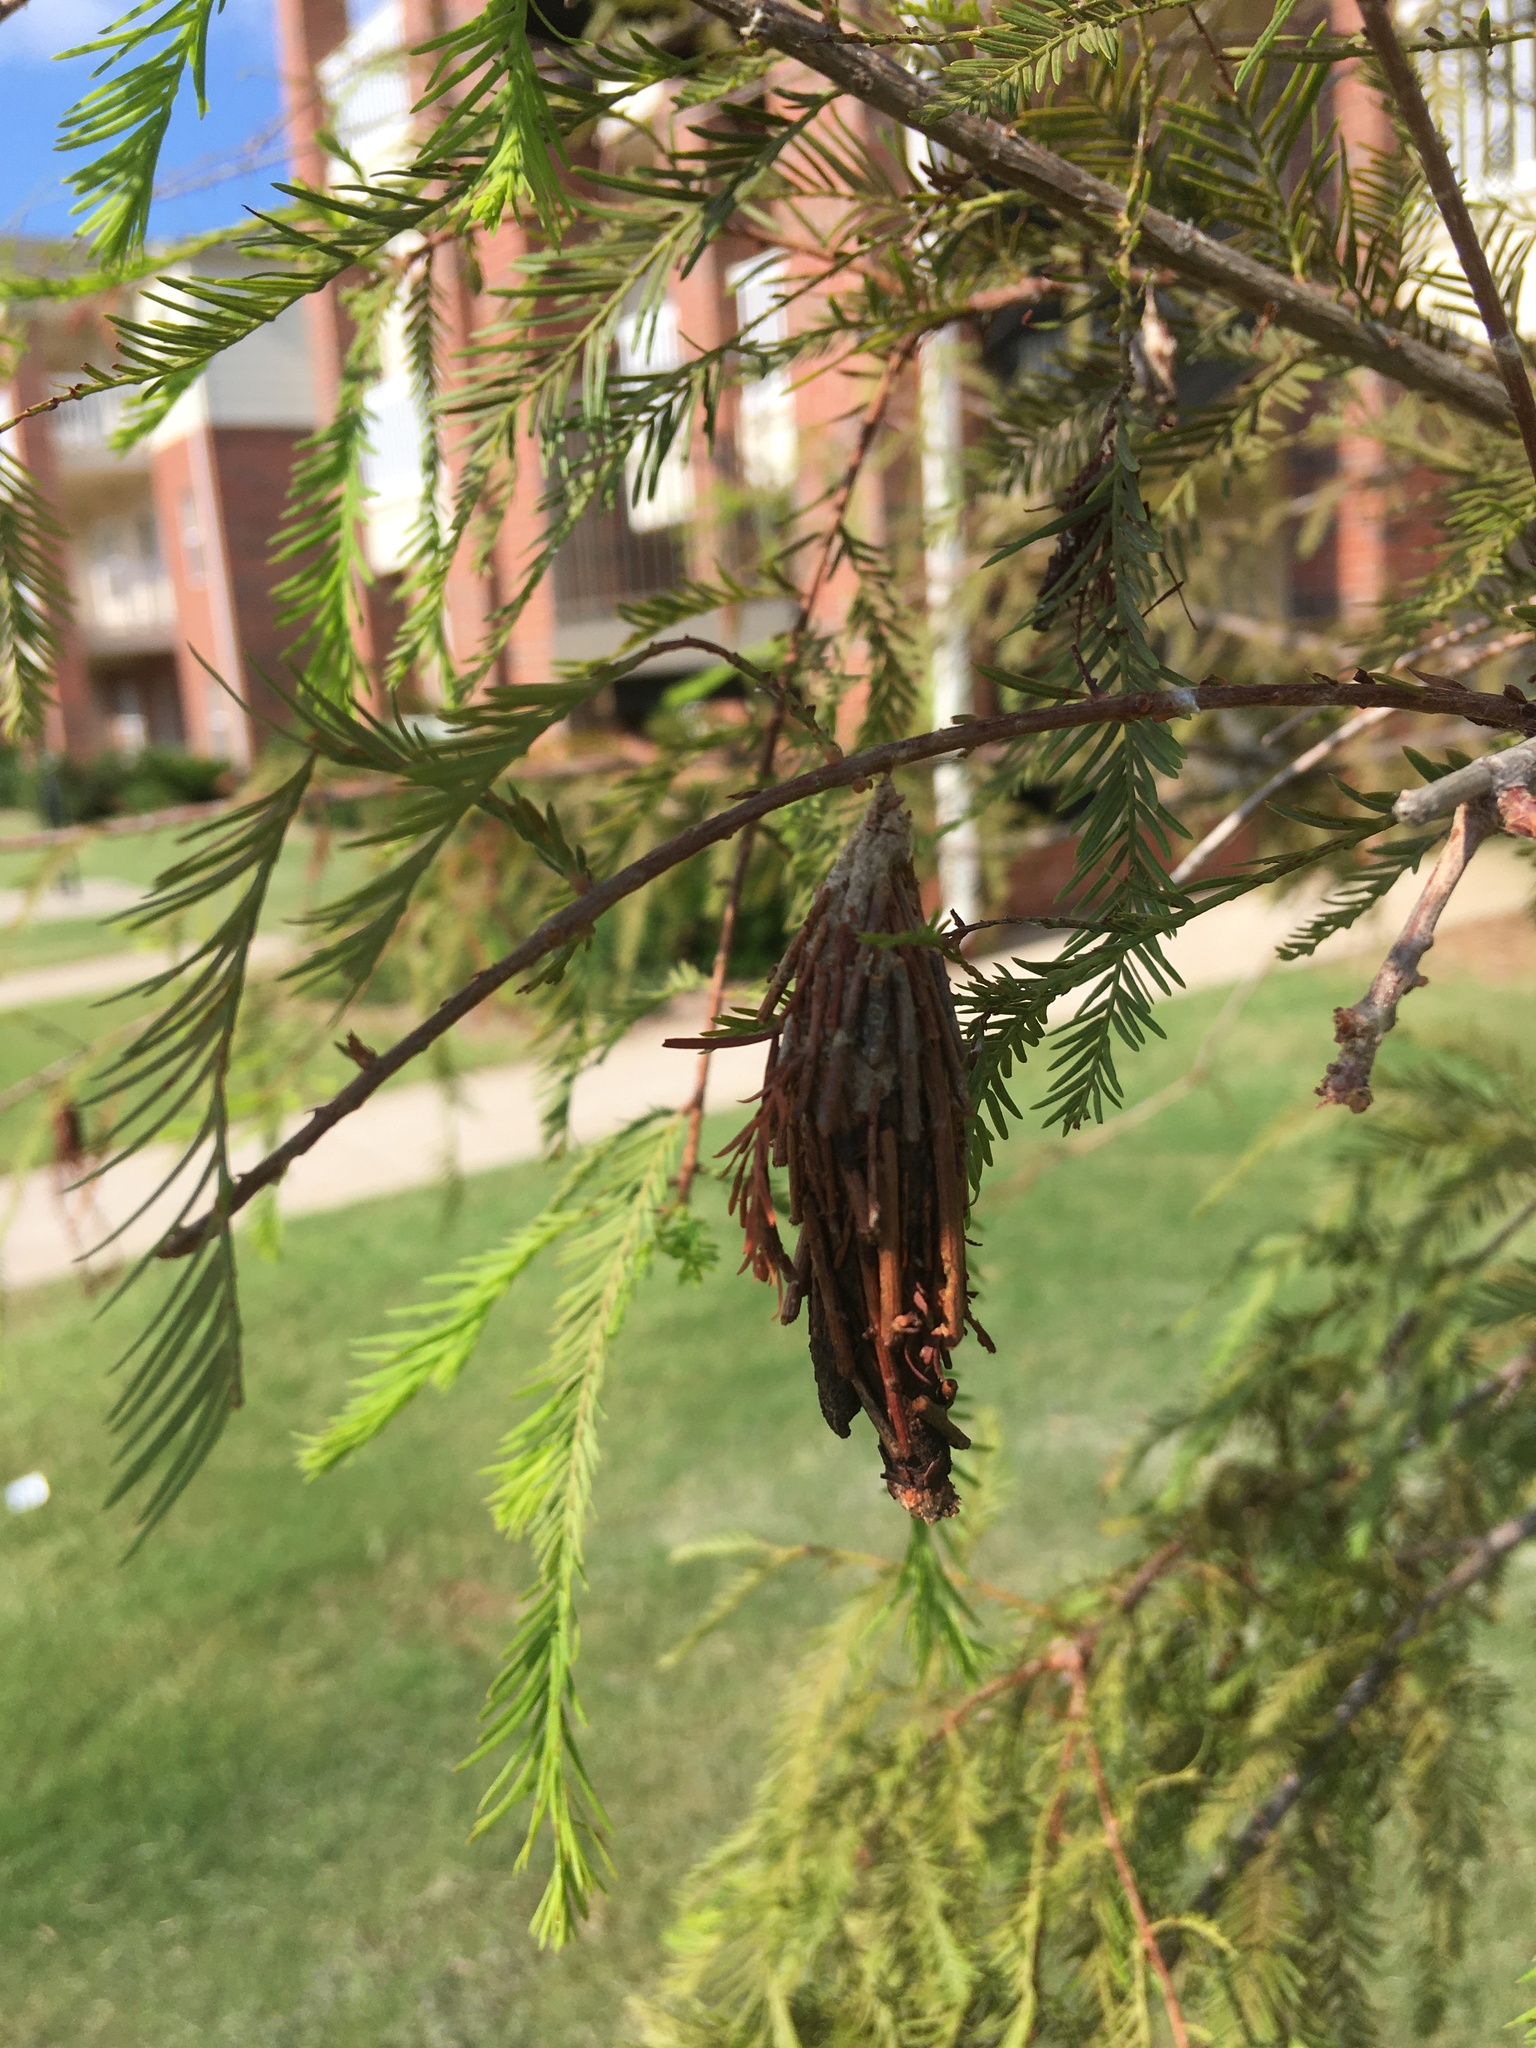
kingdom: Animalia
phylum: Arthropoda
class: Insecta
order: Lepidoptera
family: Psychidae
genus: Thyridopteryx
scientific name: Thyridopteryx ephemeraeformis
